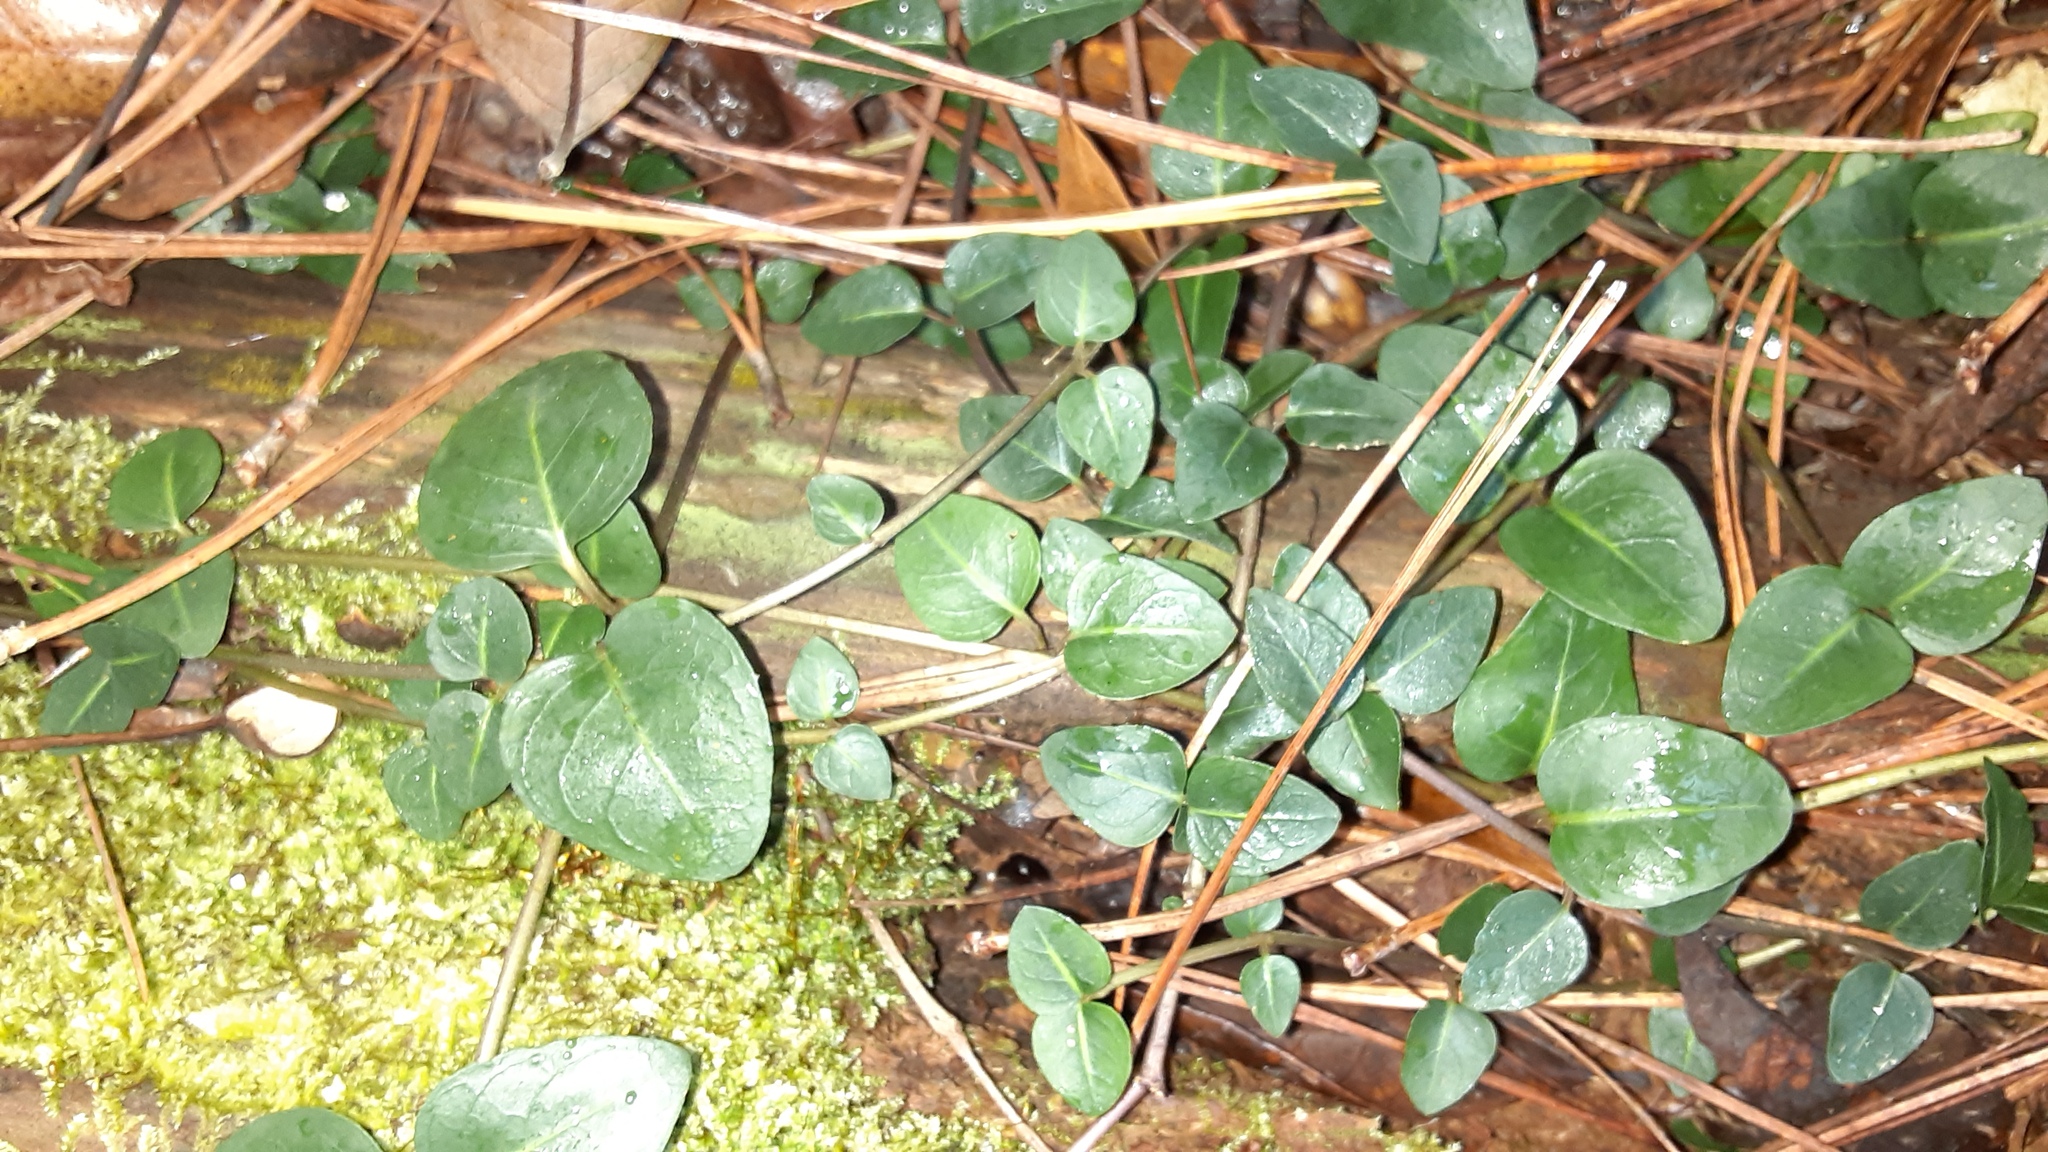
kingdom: Plantae
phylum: Tracheophyta
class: Magnoliopsida
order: Gentianales
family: Rubiaceae
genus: Mitchella
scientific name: Mitchella repens
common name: Partridge-berry
